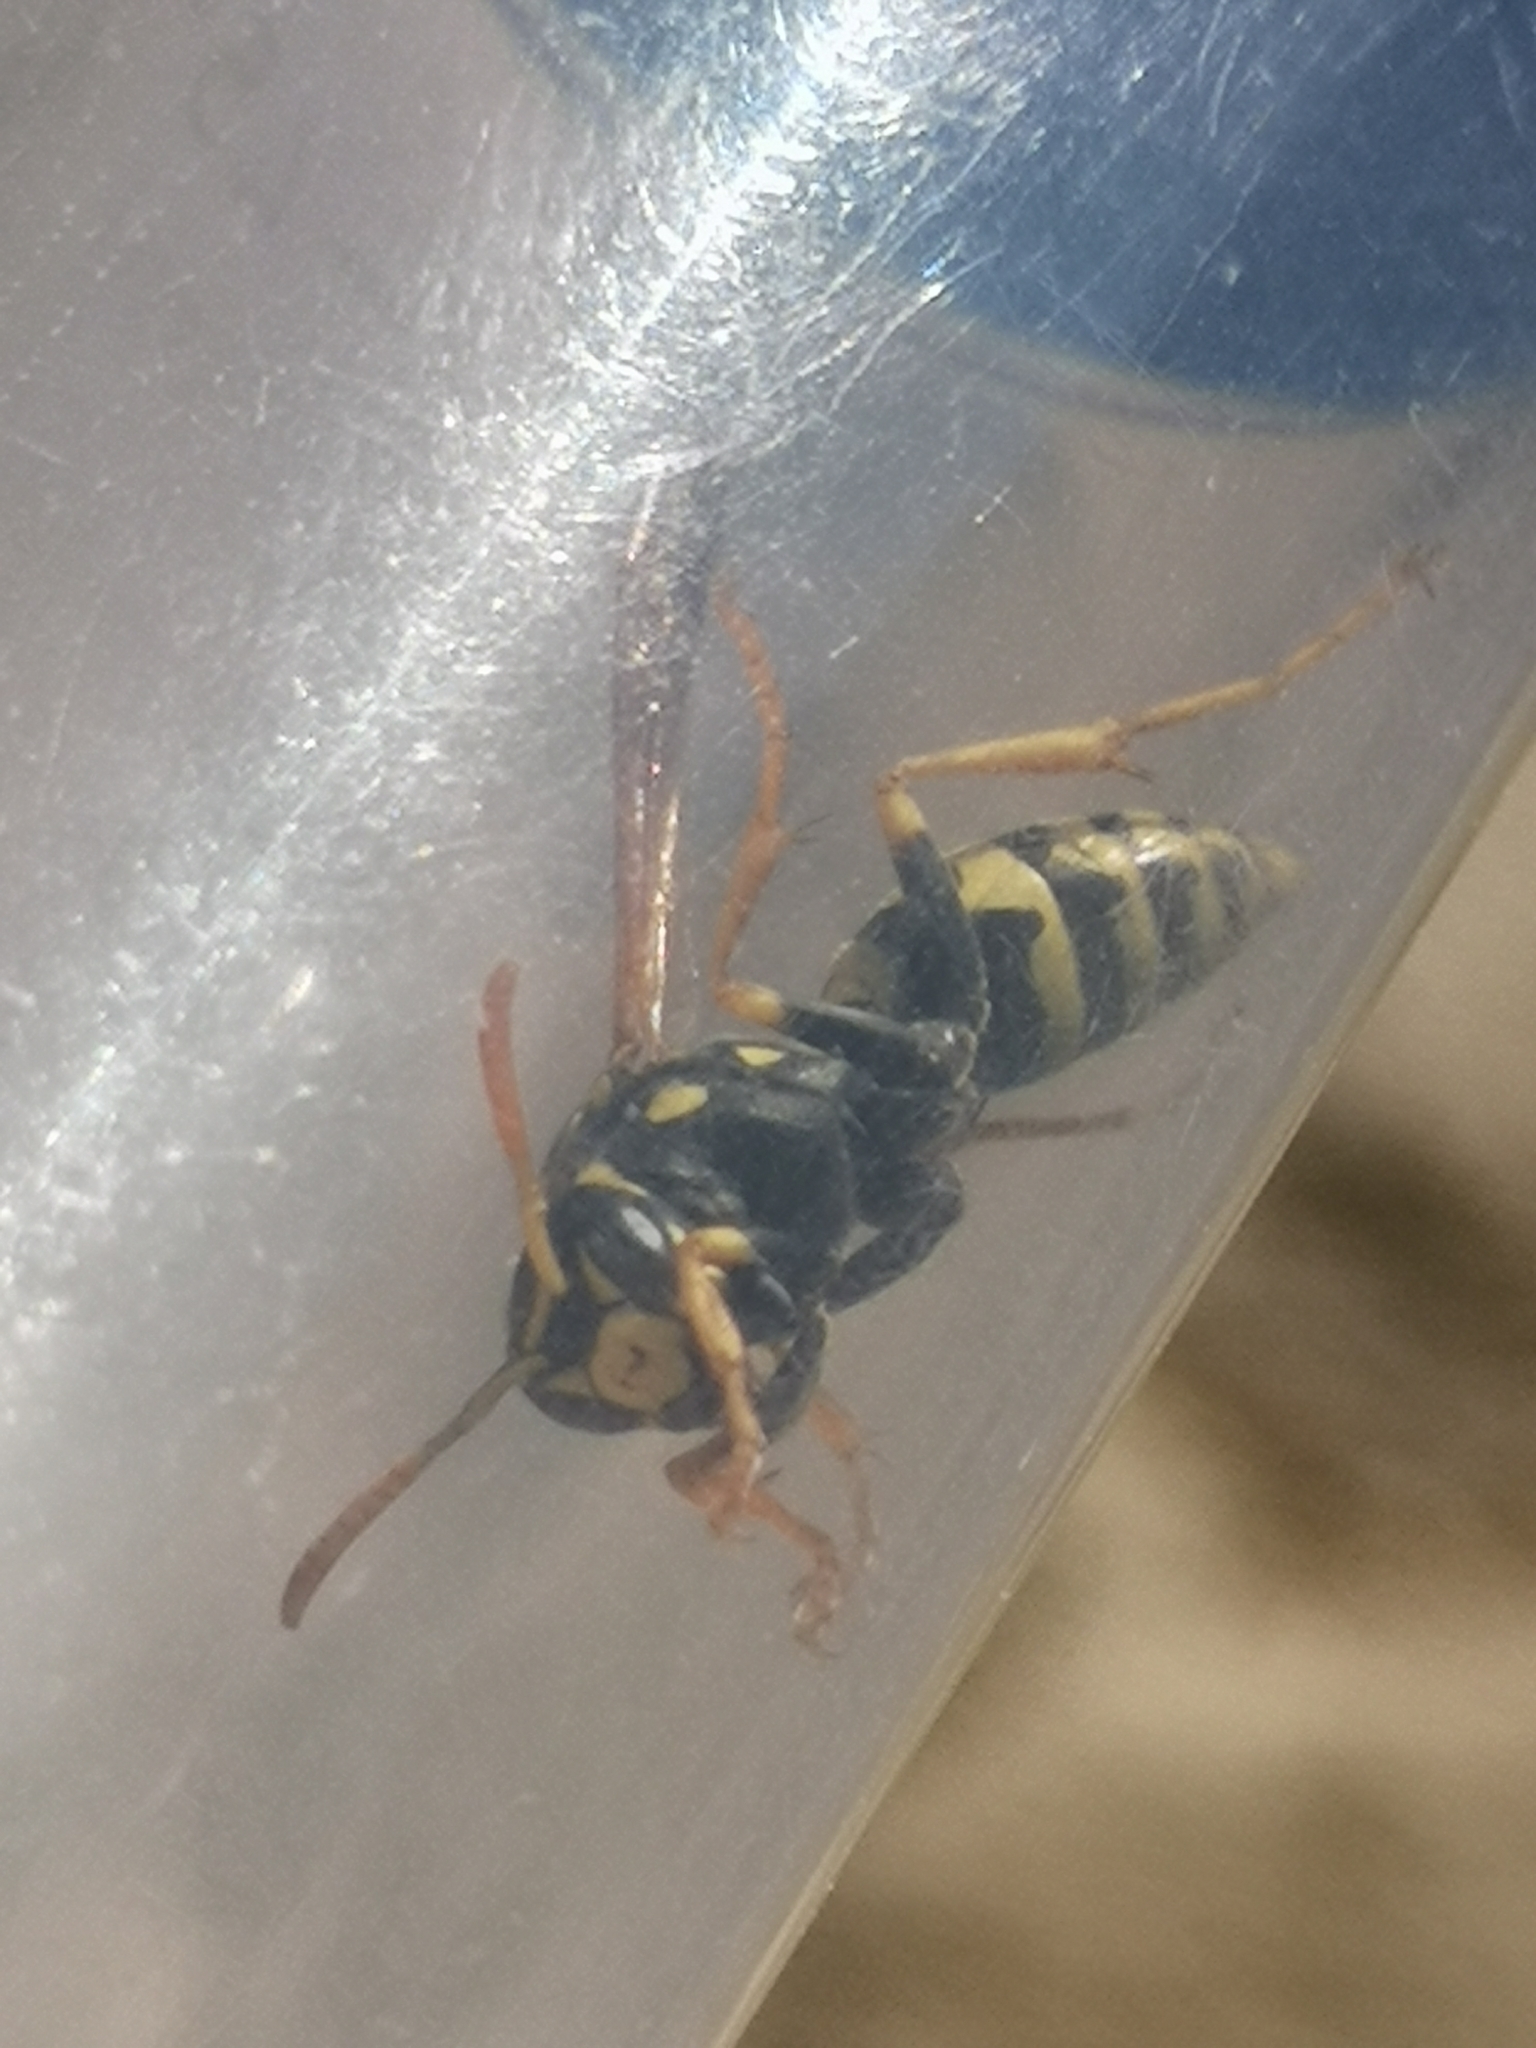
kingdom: Animalia
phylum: Arthropoda
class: Insecta
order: Hymenoptera
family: Eumenidae
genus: Polistes
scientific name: Polistes dominula
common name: Paper wasp
